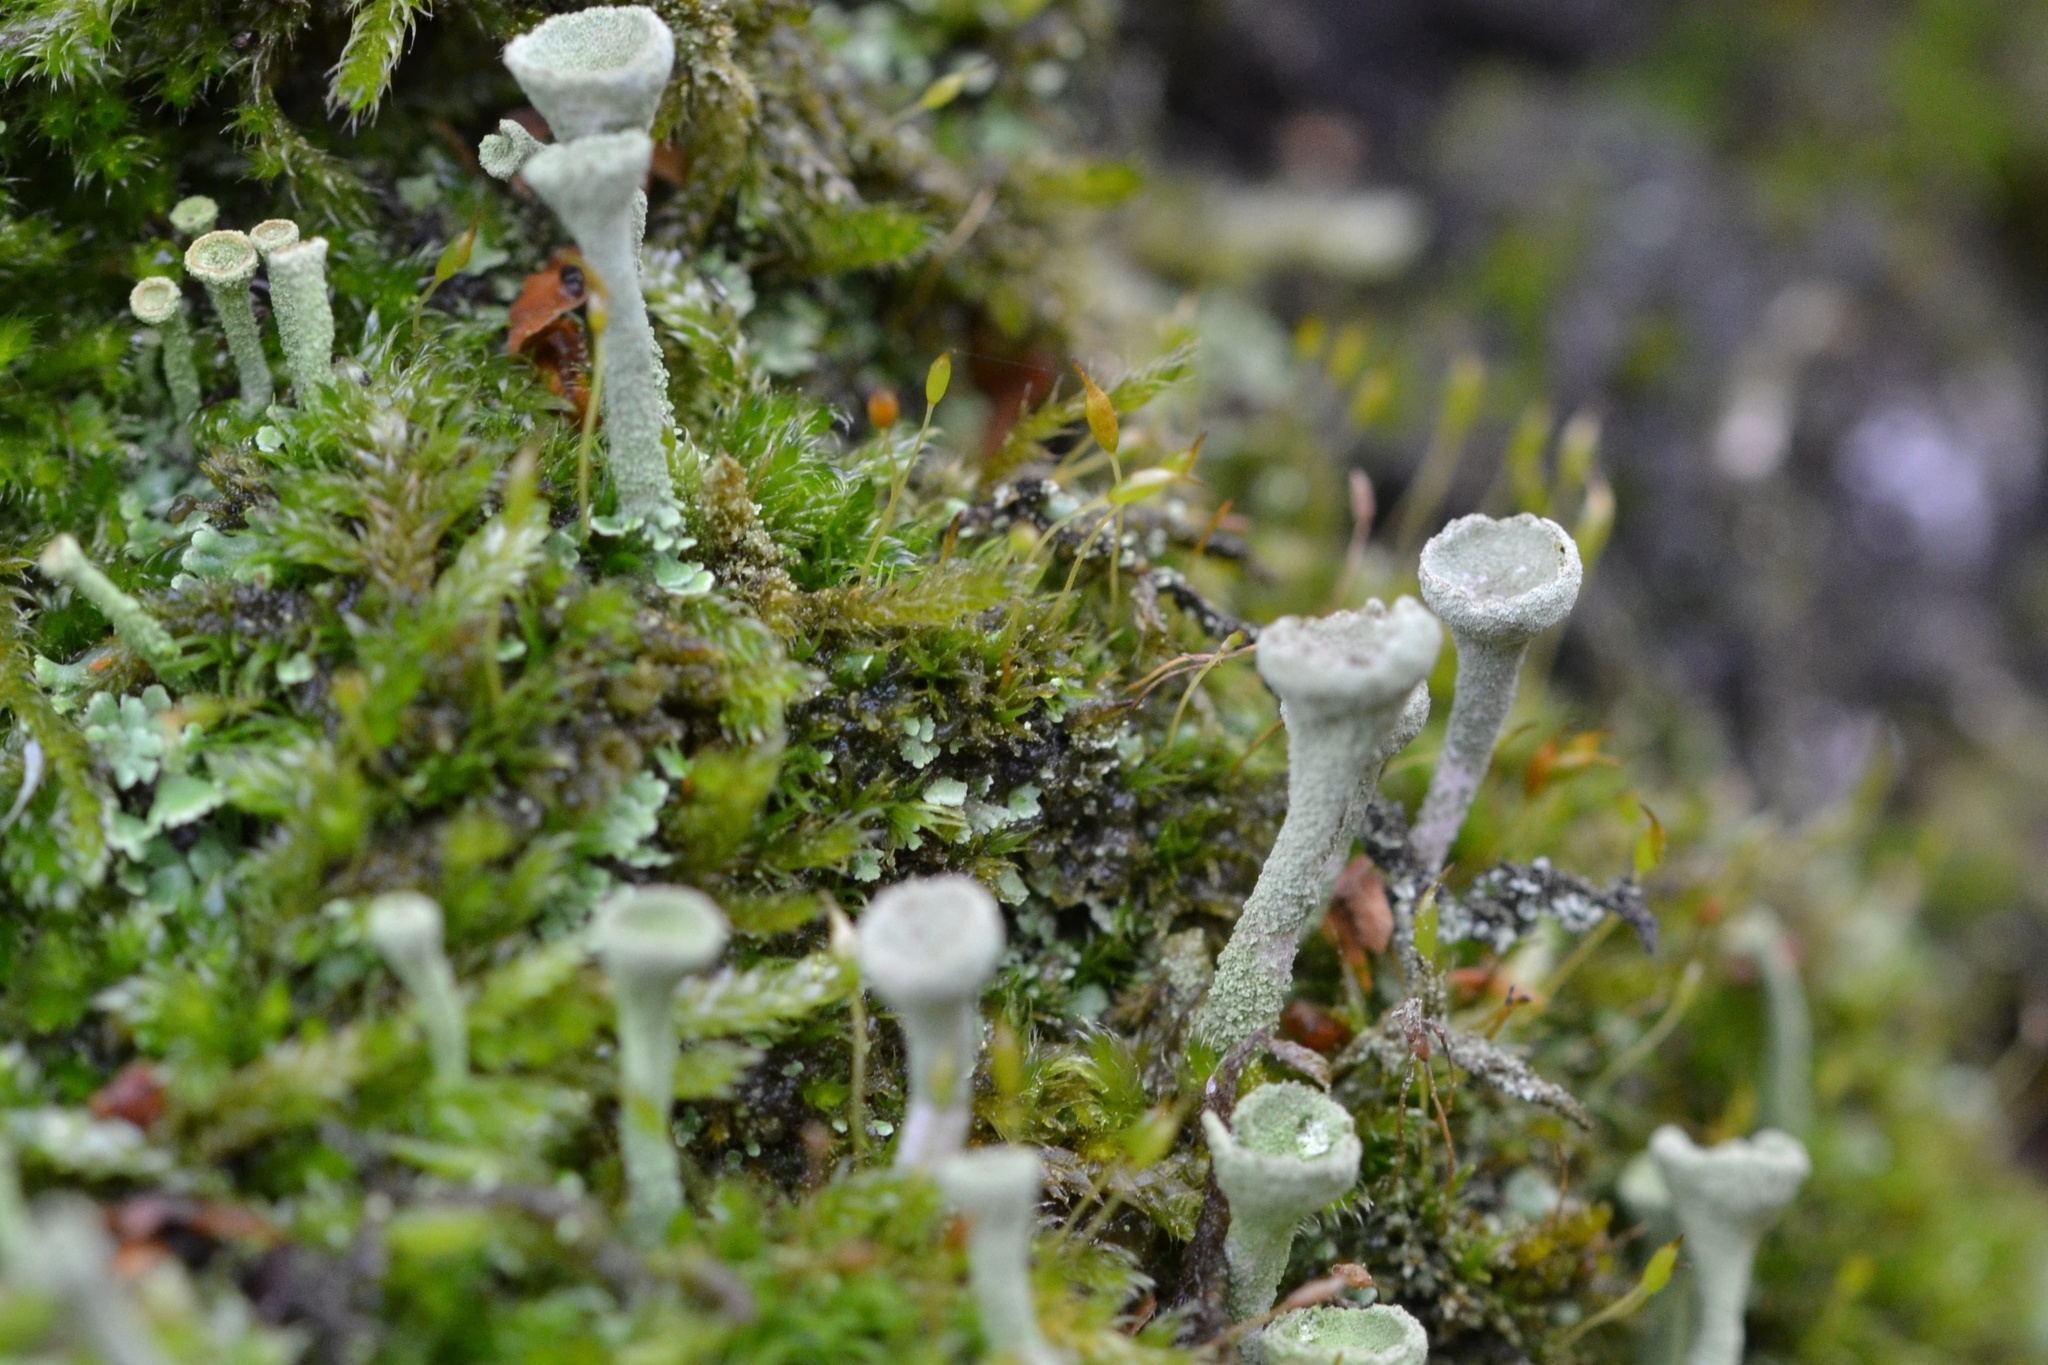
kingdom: Fungi
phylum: Ascomycota
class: Lecanoromycetes
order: Lecanorales
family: Cladoniaceae
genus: Cladonia
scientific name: Cladonia fimbriata
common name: Powdered trumpet lichen
